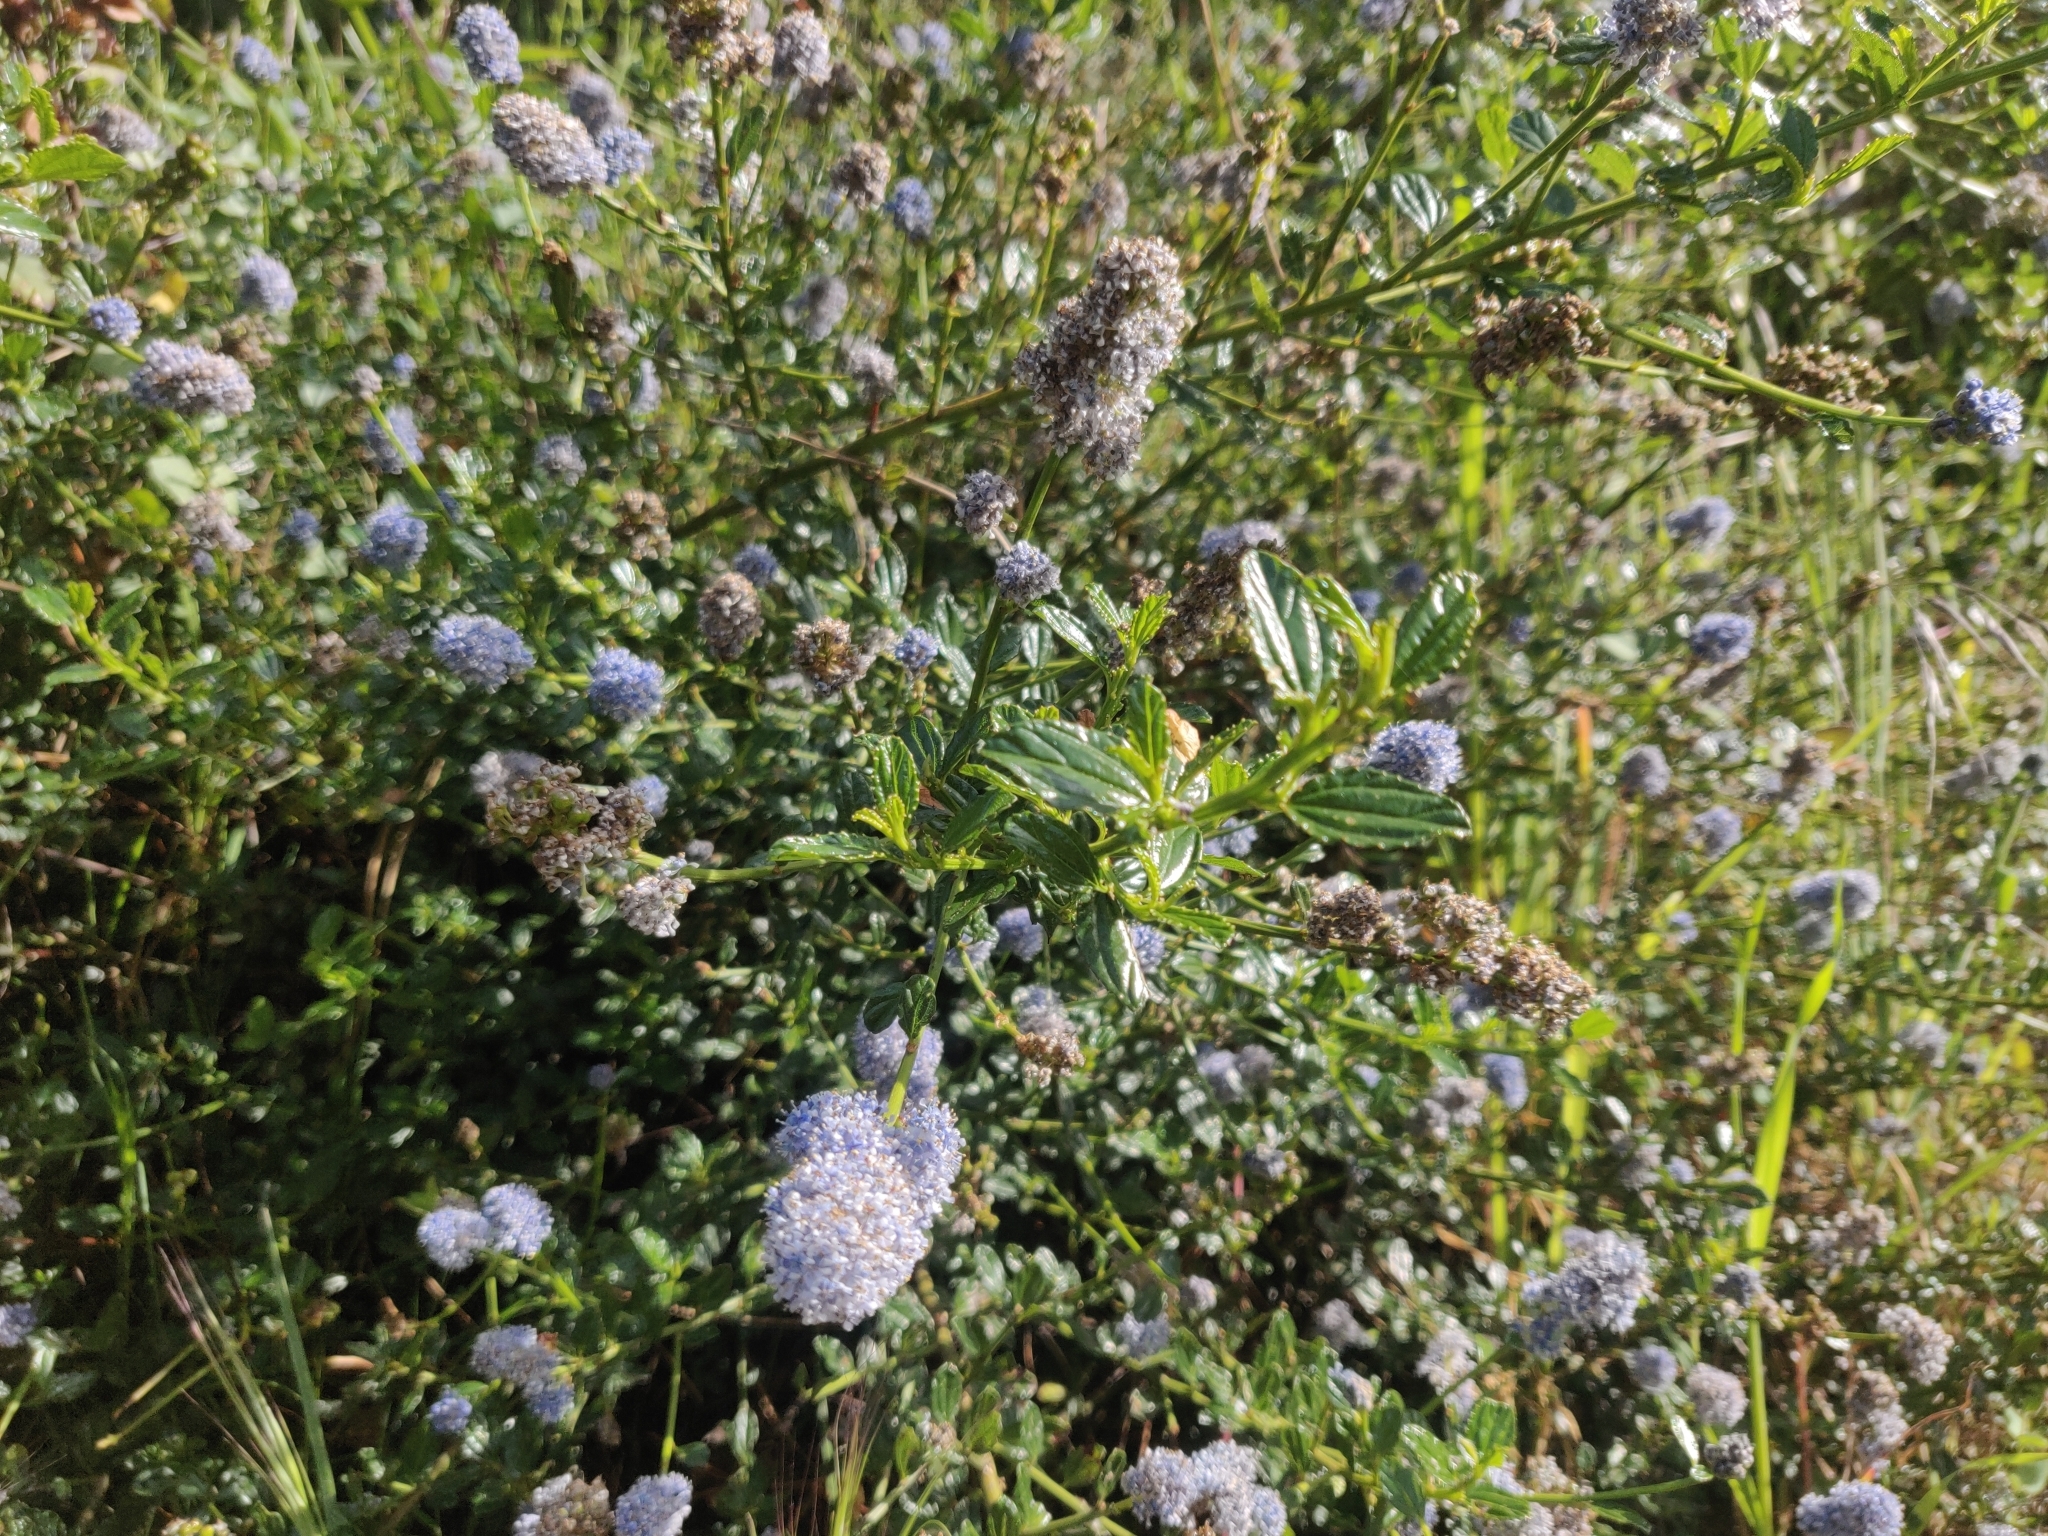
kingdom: Plantae
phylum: Tracheophyta
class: Magnoliopsida
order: Rosales
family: Rhamnaceae
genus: Ceanothus
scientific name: Ceanothus thyrsiflorus
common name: California-lilac
